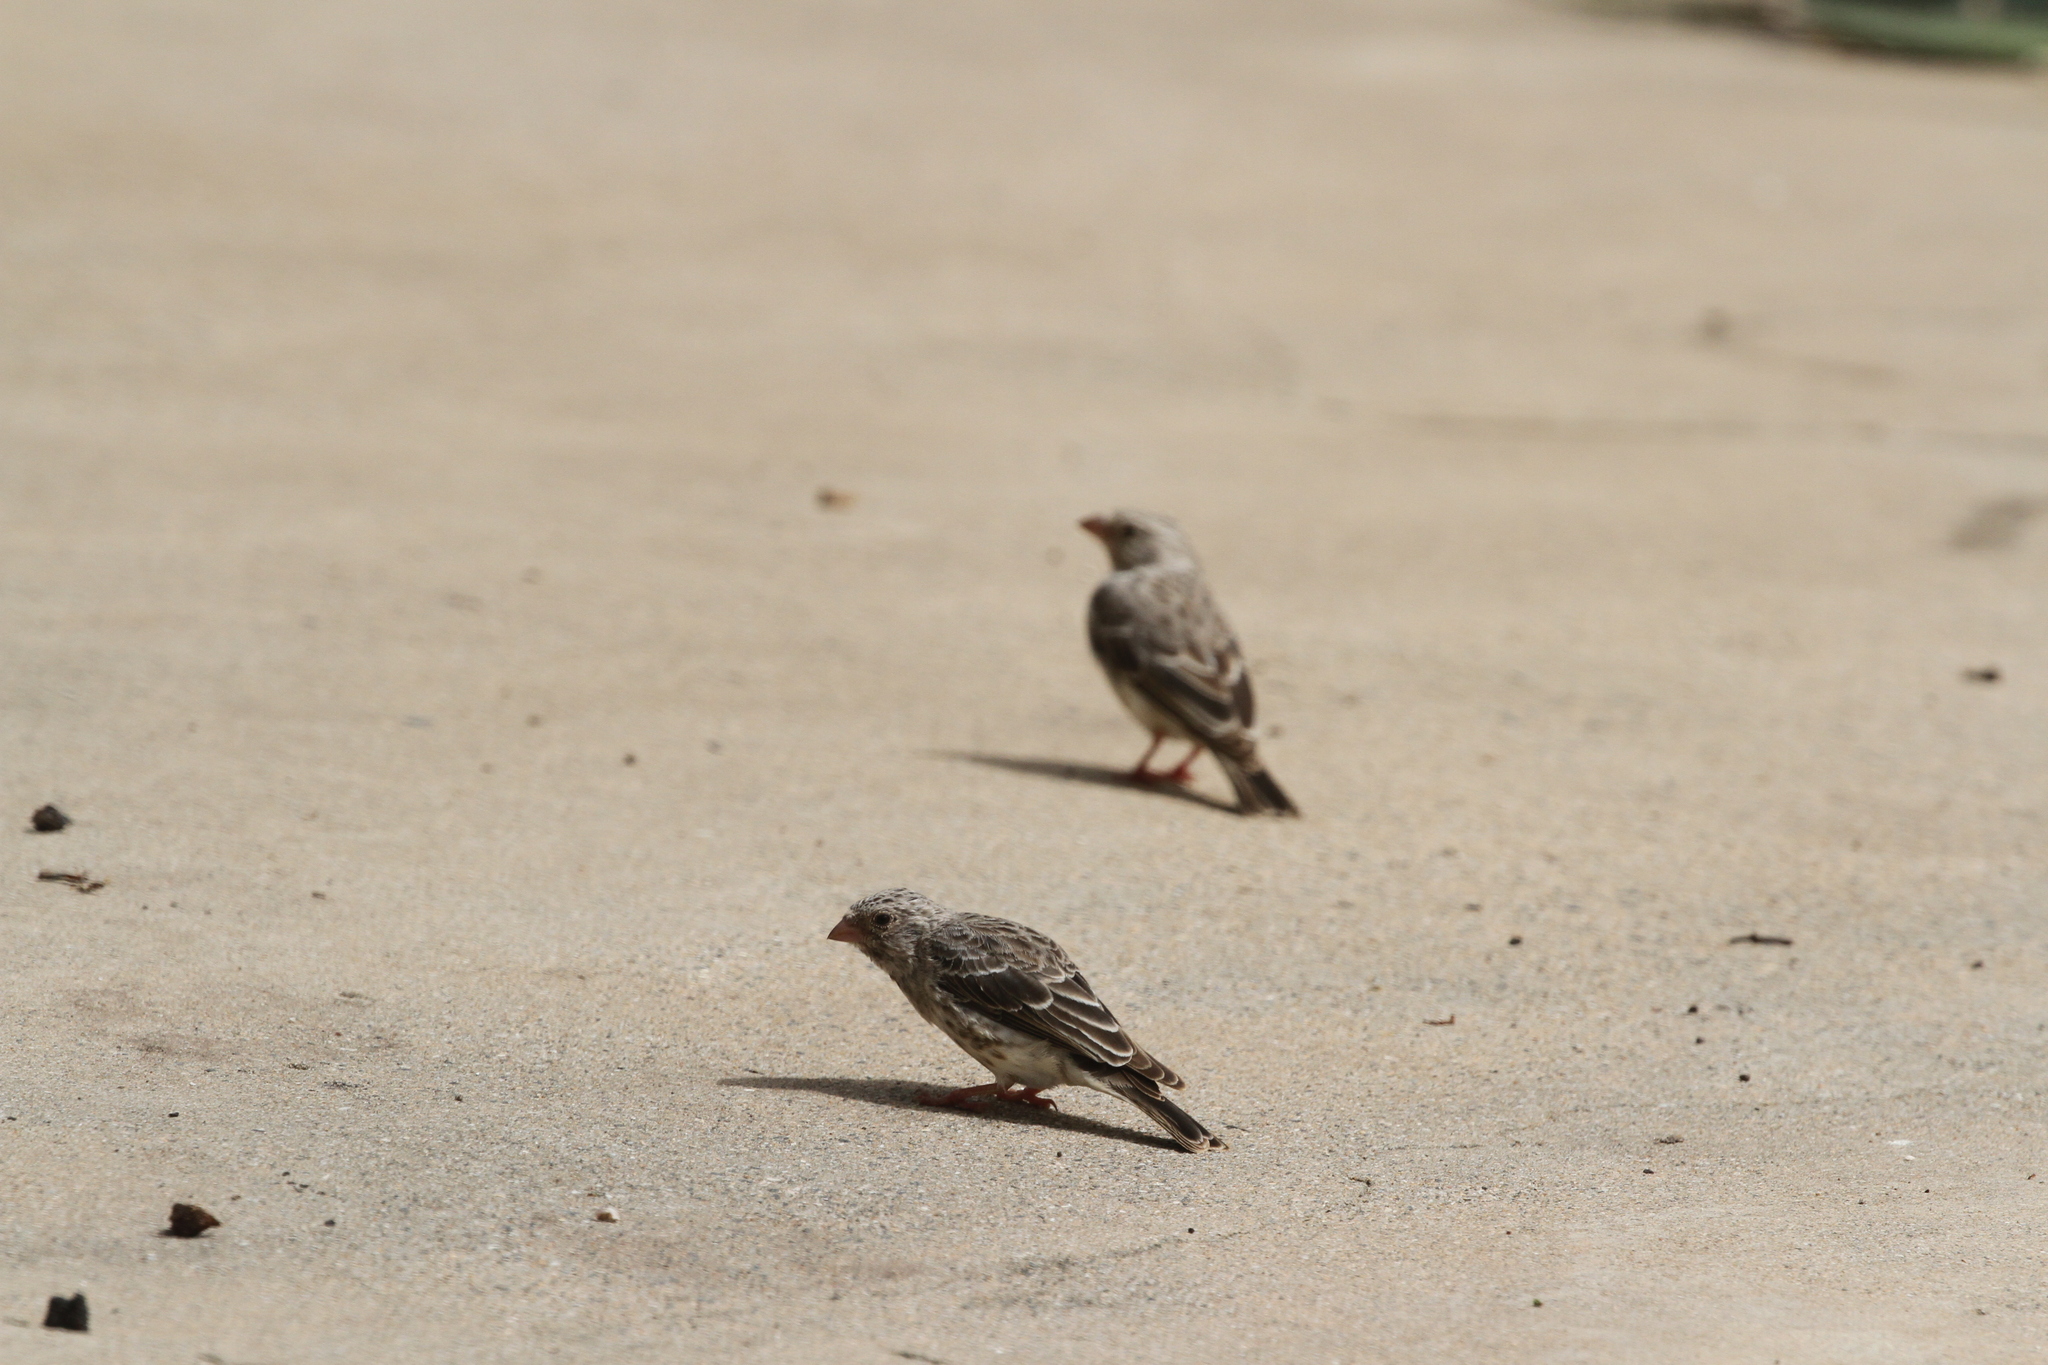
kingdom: Animalia
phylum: Chordata
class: Aves
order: Passeriformes
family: Ploceidae
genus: Quelea
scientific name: Quelea quelea
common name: Red-billed quelea
